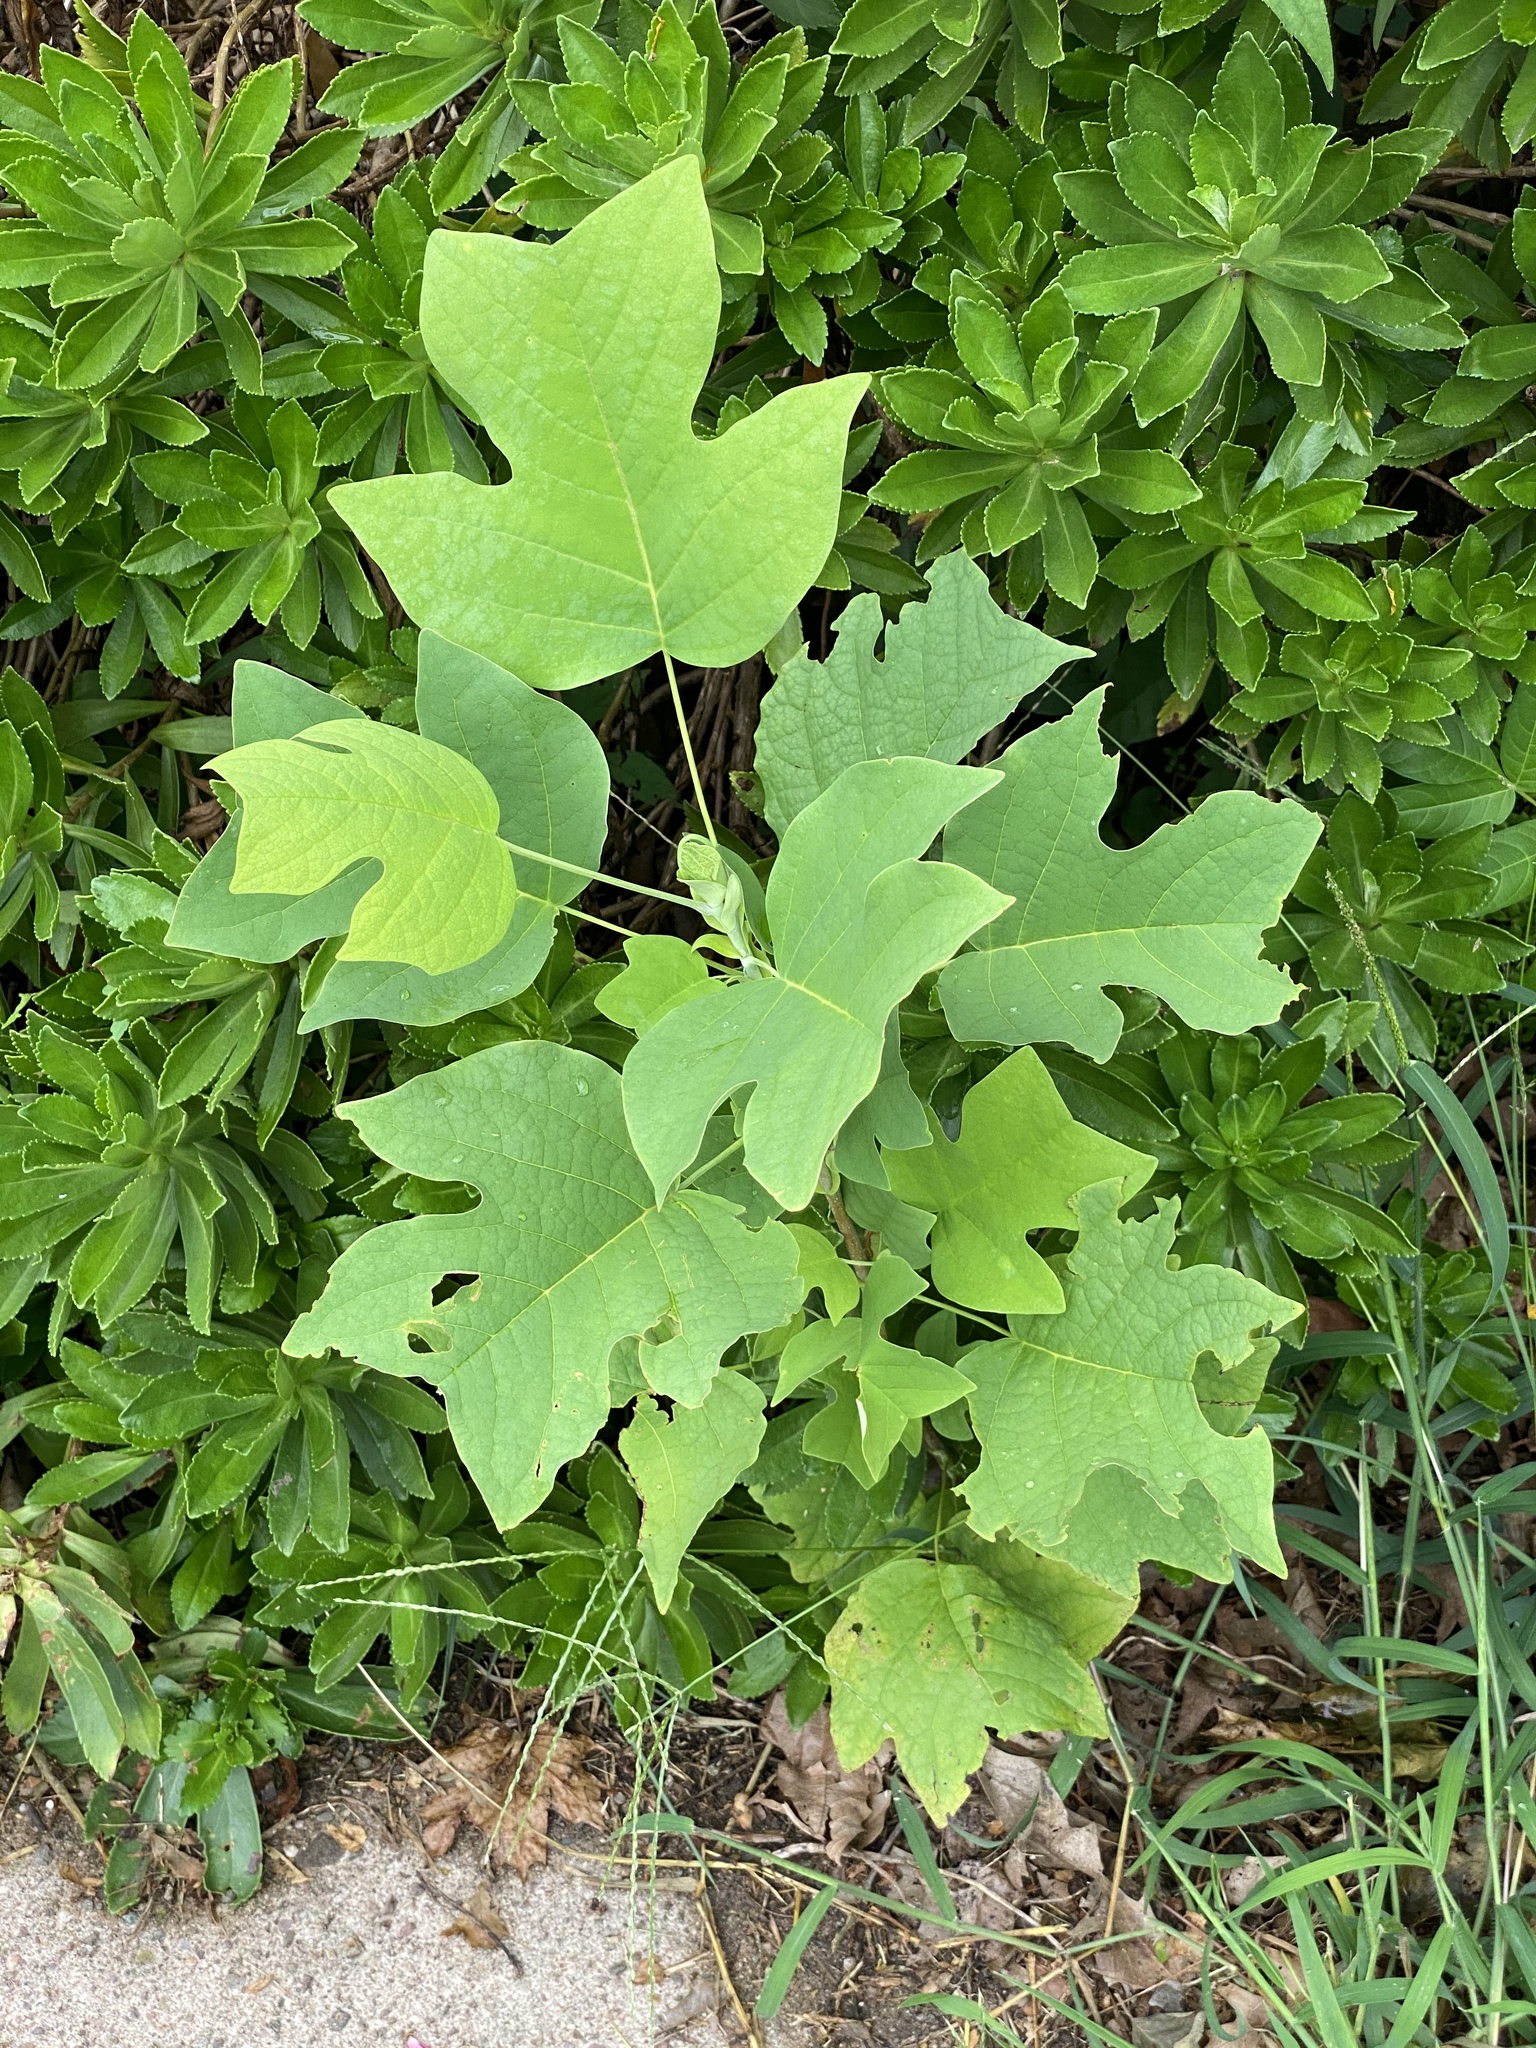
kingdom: Plantae
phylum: Tracheophyta
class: Magnoliopsida
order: Magnoliales
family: Magnoliaceae
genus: Liriodendron
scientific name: Liriodendron tulipifera
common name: Tulip tree
